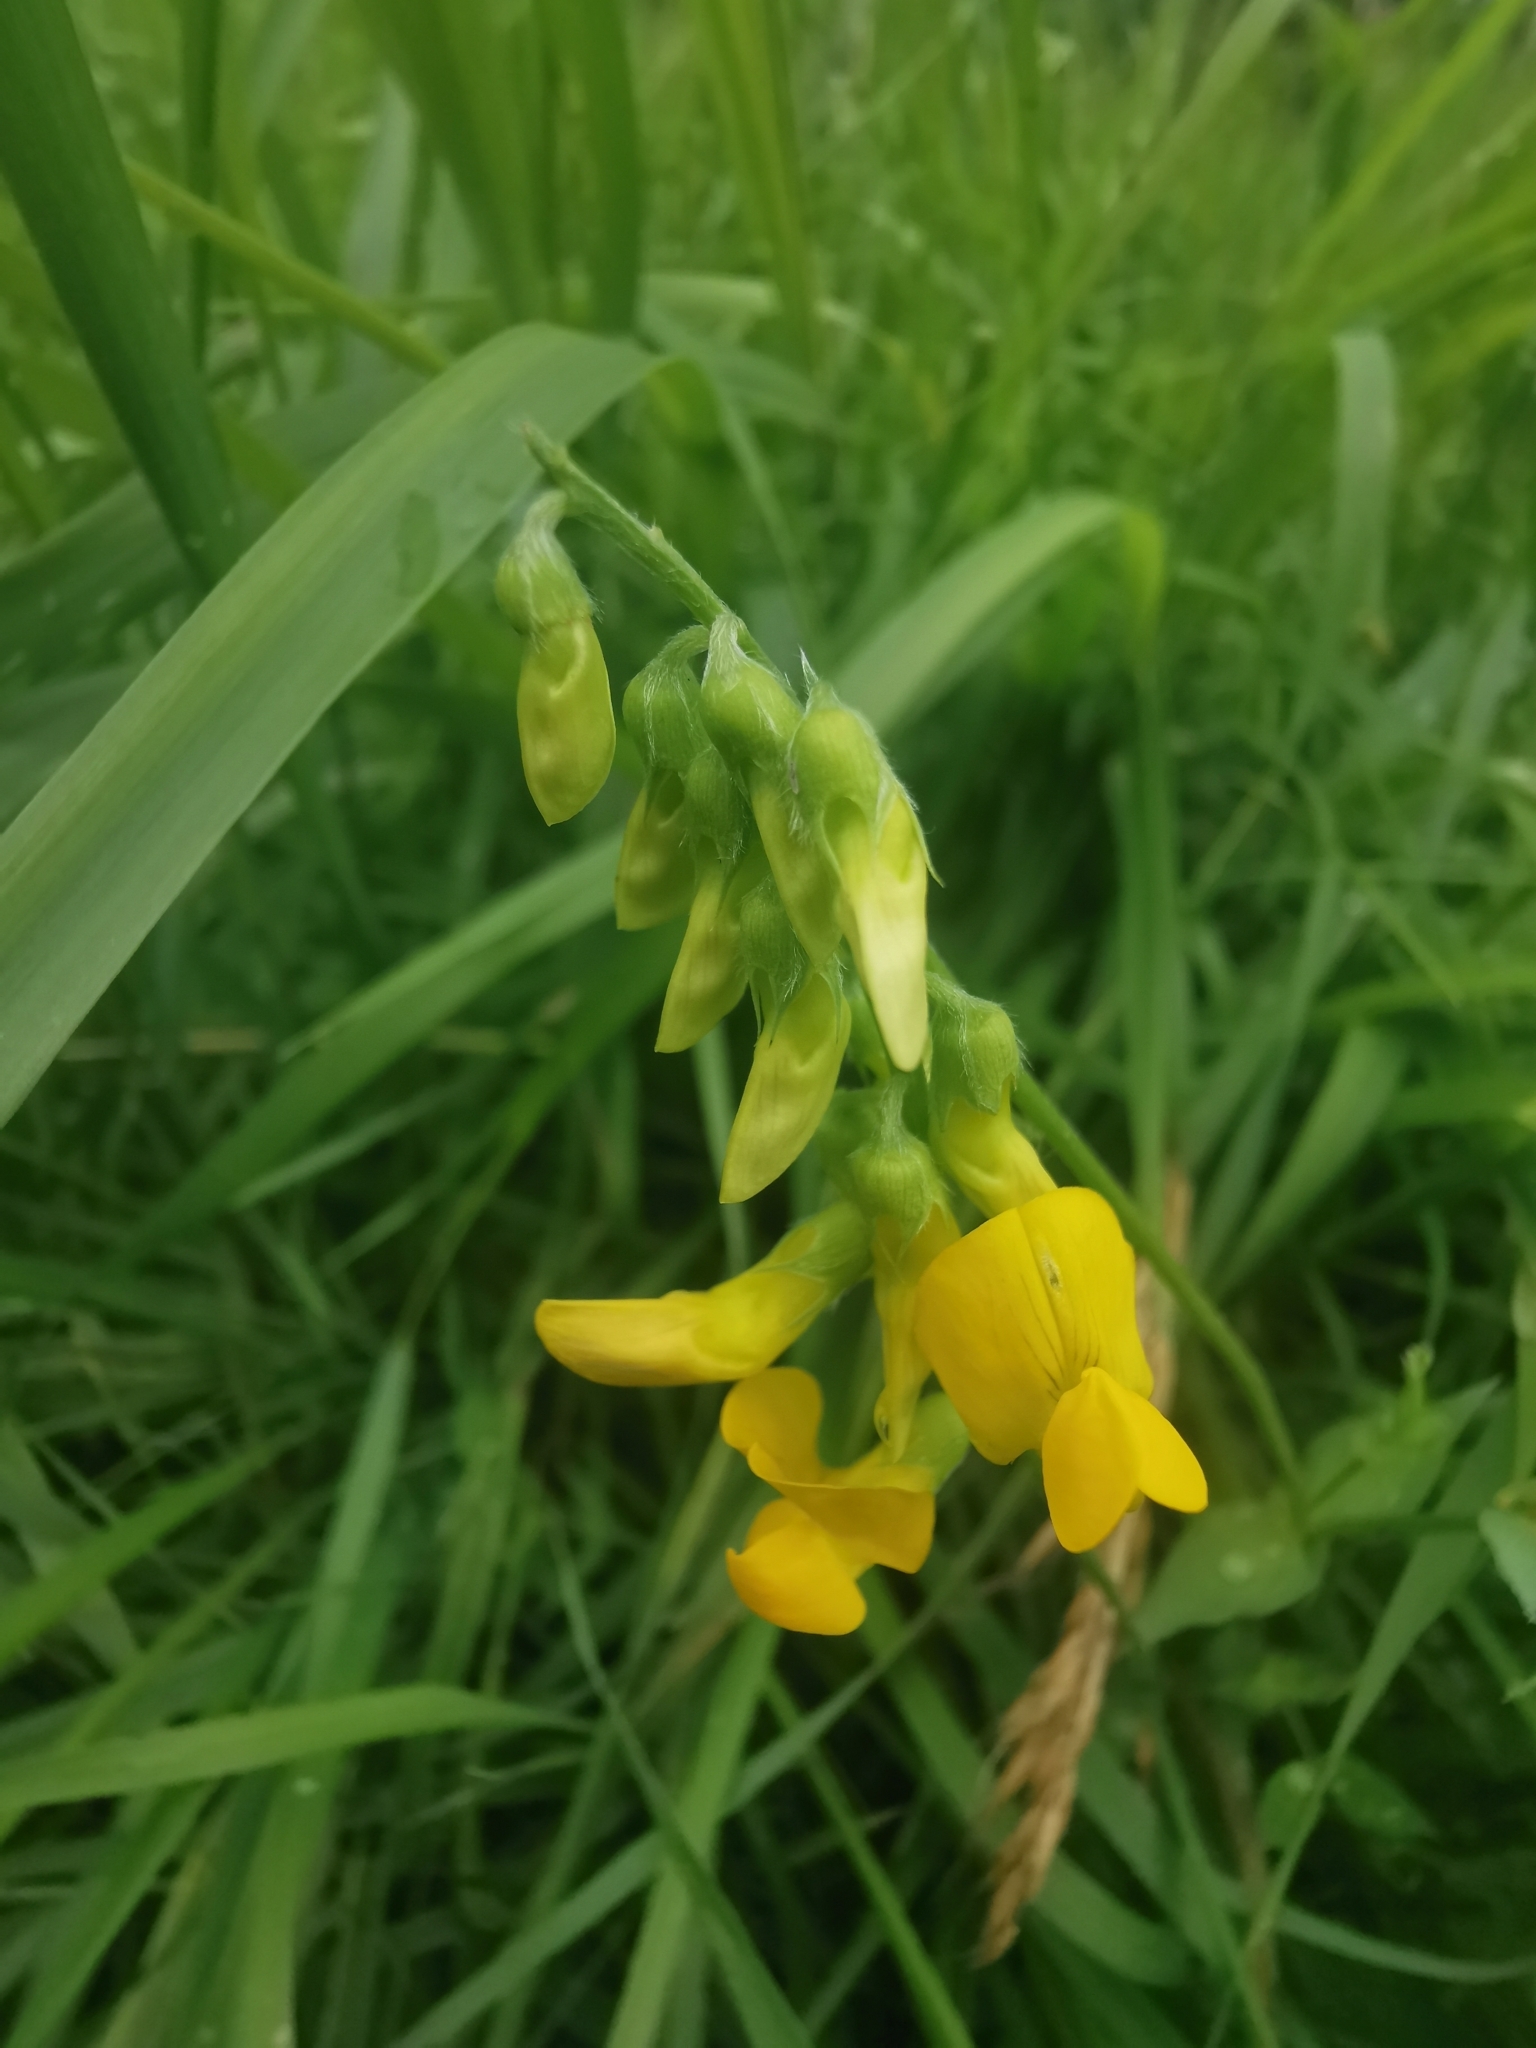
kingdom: Plantae
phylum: Tracheophyta
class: Magnoliopsida
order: Fabales
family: Fabaceae
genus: Lathyrus
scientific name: Lathyrus pratensis
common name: Meadow vetchling
